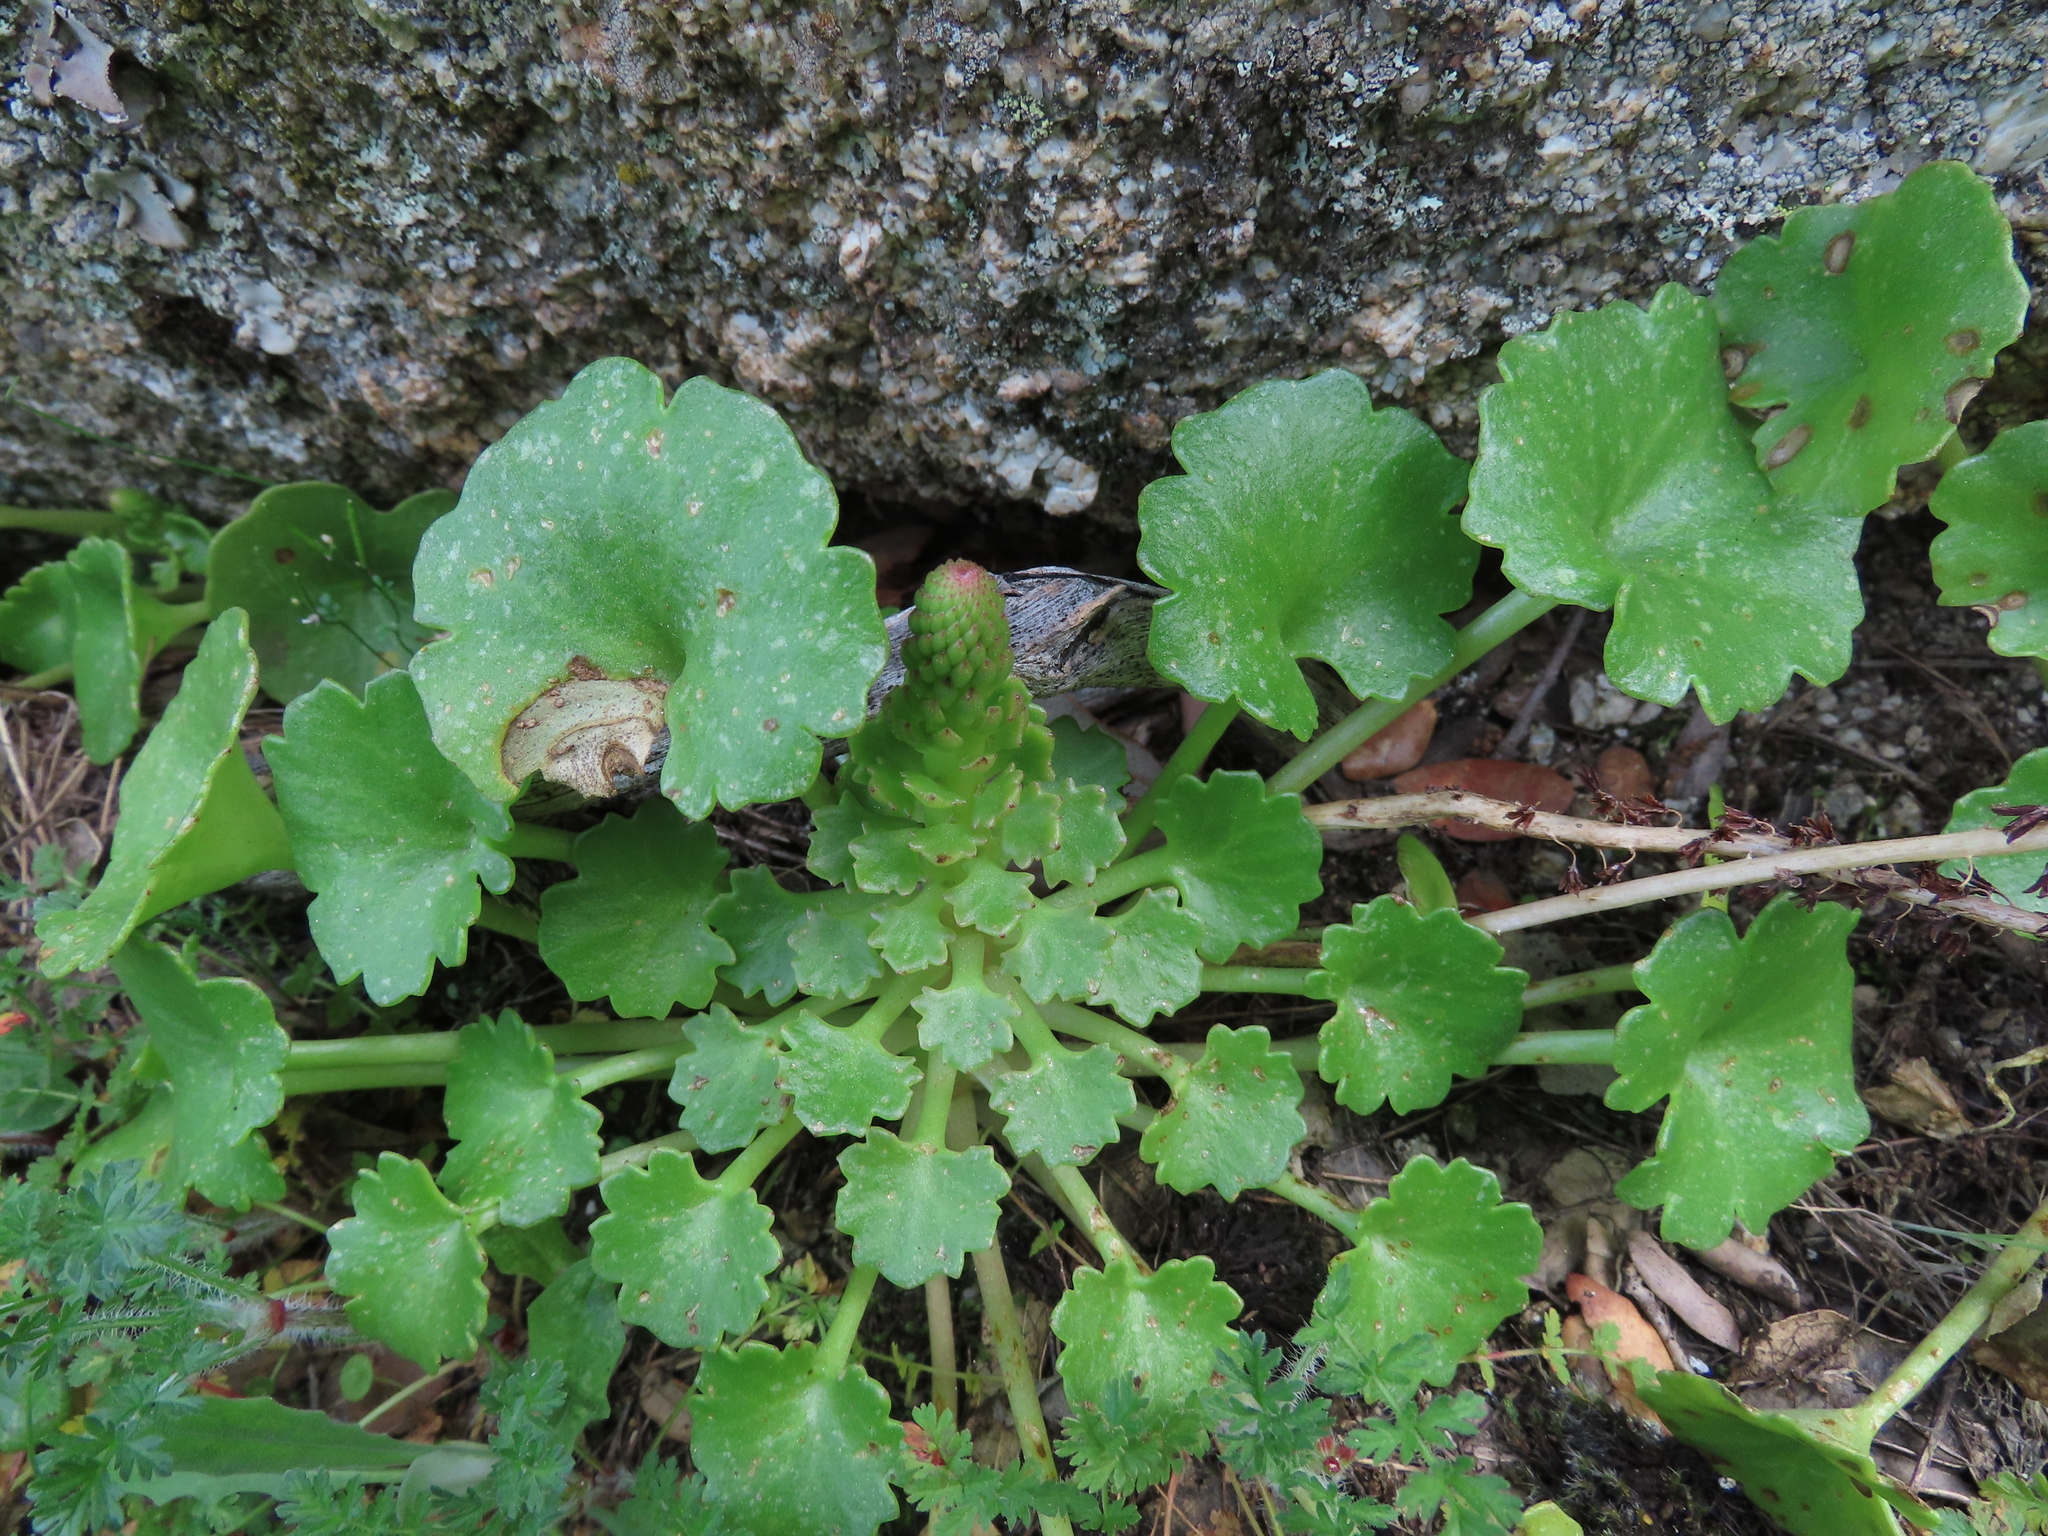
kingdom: Plantae
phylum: Tracheophyta
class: Magnoliopsida
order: Saxifragales
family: Crassulaceae
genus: Umbilicus
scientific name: Umbilicus rupestris
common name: Navelwort
